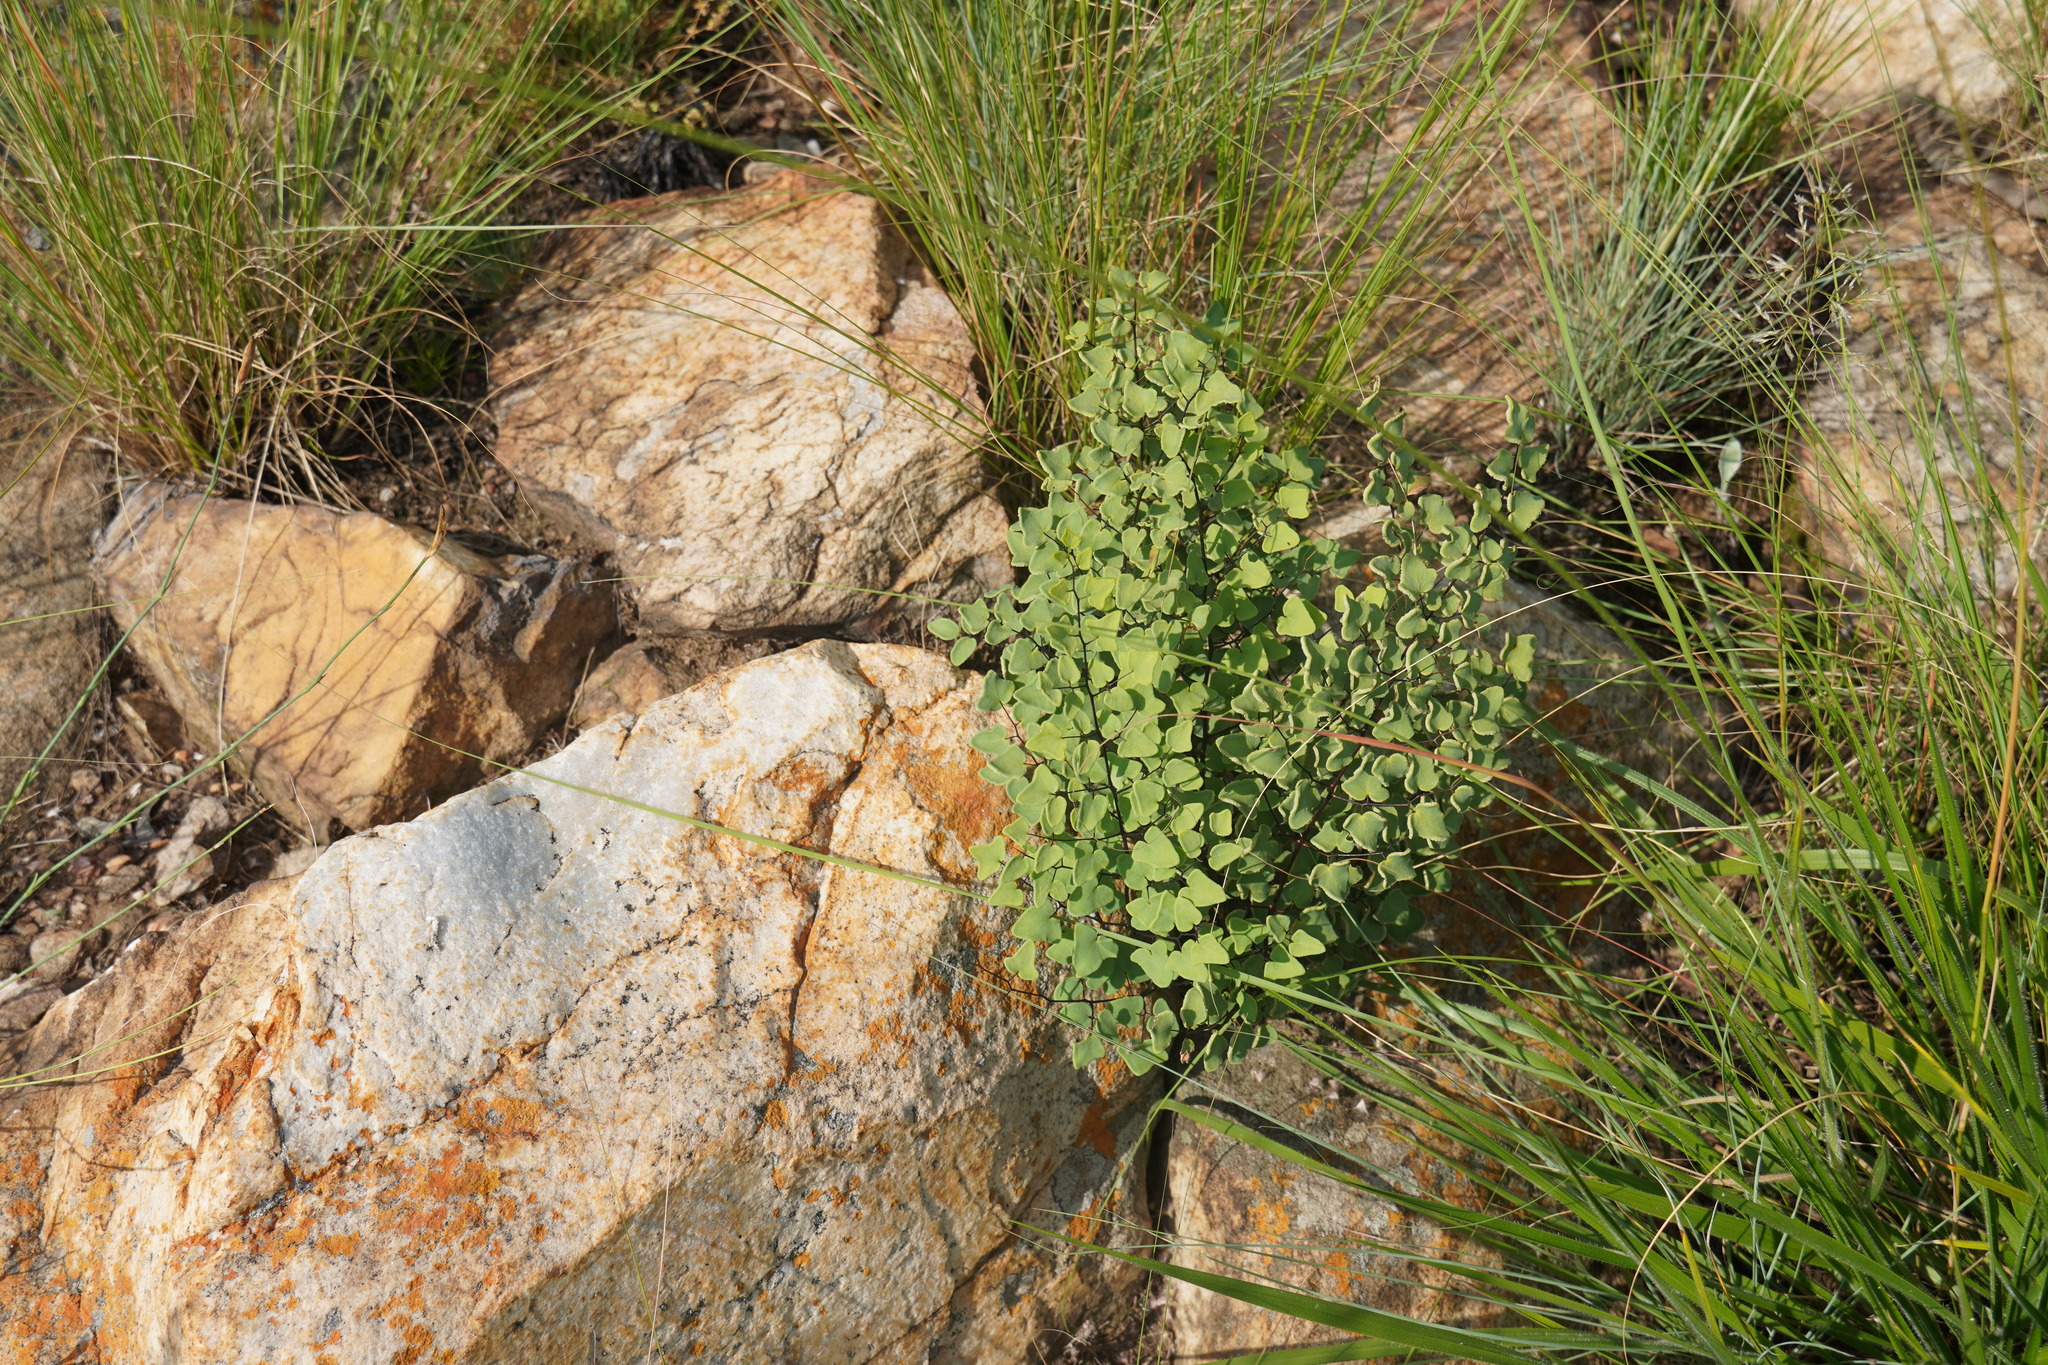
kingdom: Plantae
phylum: Tracheophyta
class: Polypodiopsida
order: Polypodiales
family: Pteridaceae
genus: Pellaea
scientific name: Pellaea calomelanos
